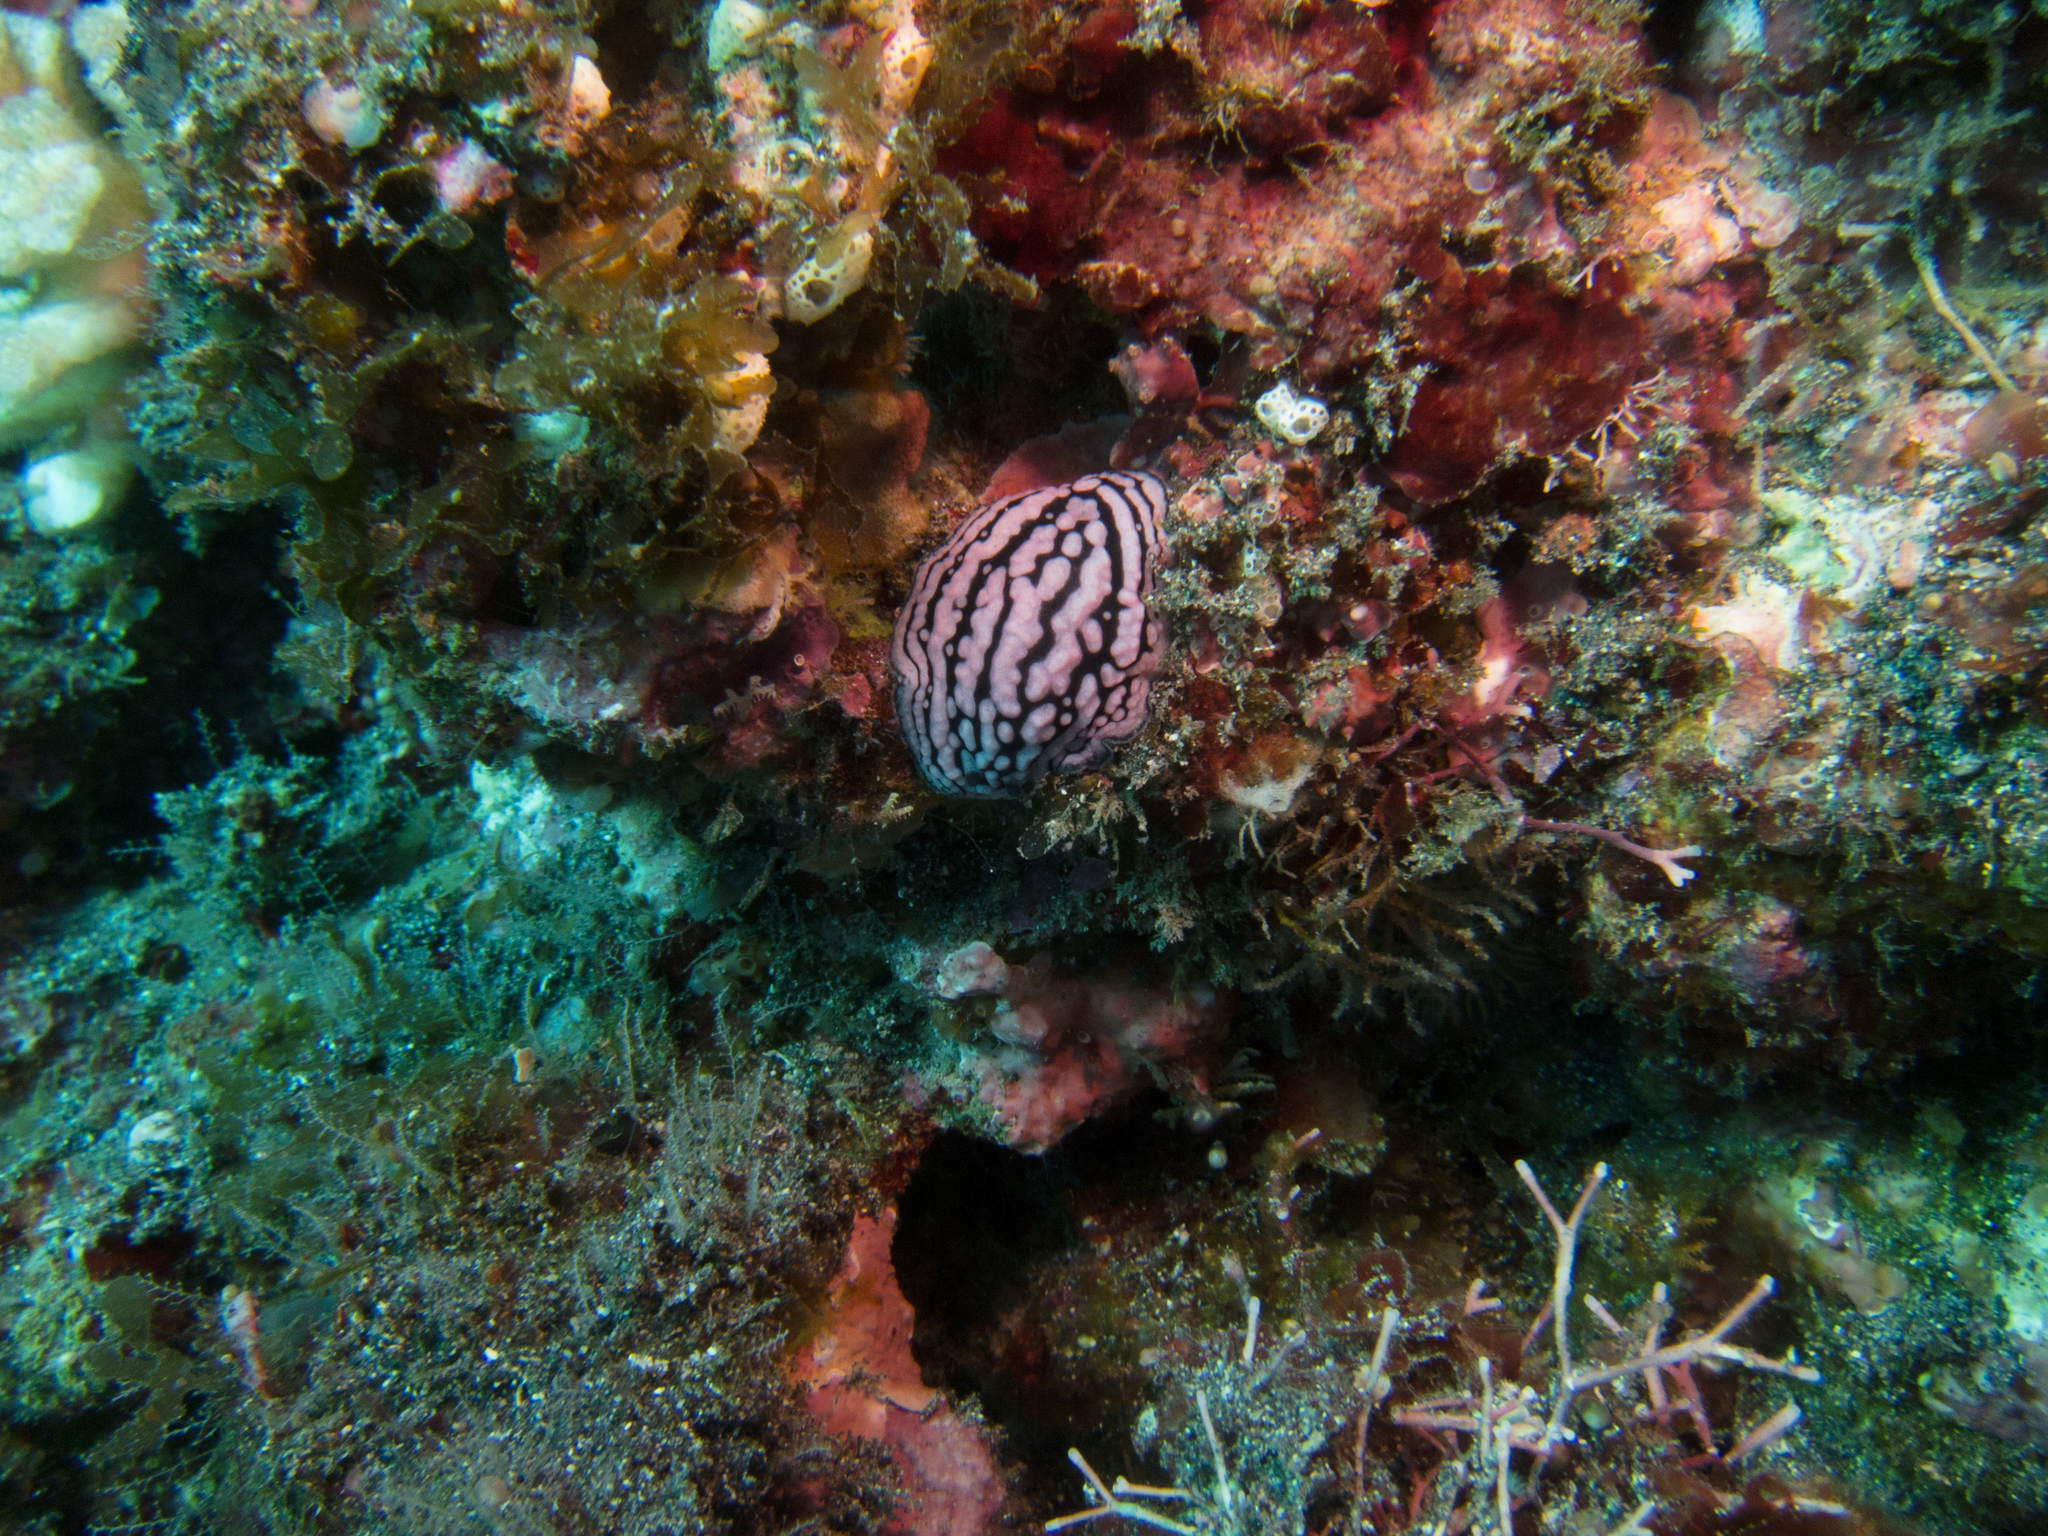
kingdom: Animalia
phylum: Mollusca
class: Gastropoda
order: Nudibranchia
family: Phyllidiidae
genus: Phyllidiella
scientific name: Phyllidiella rosans
